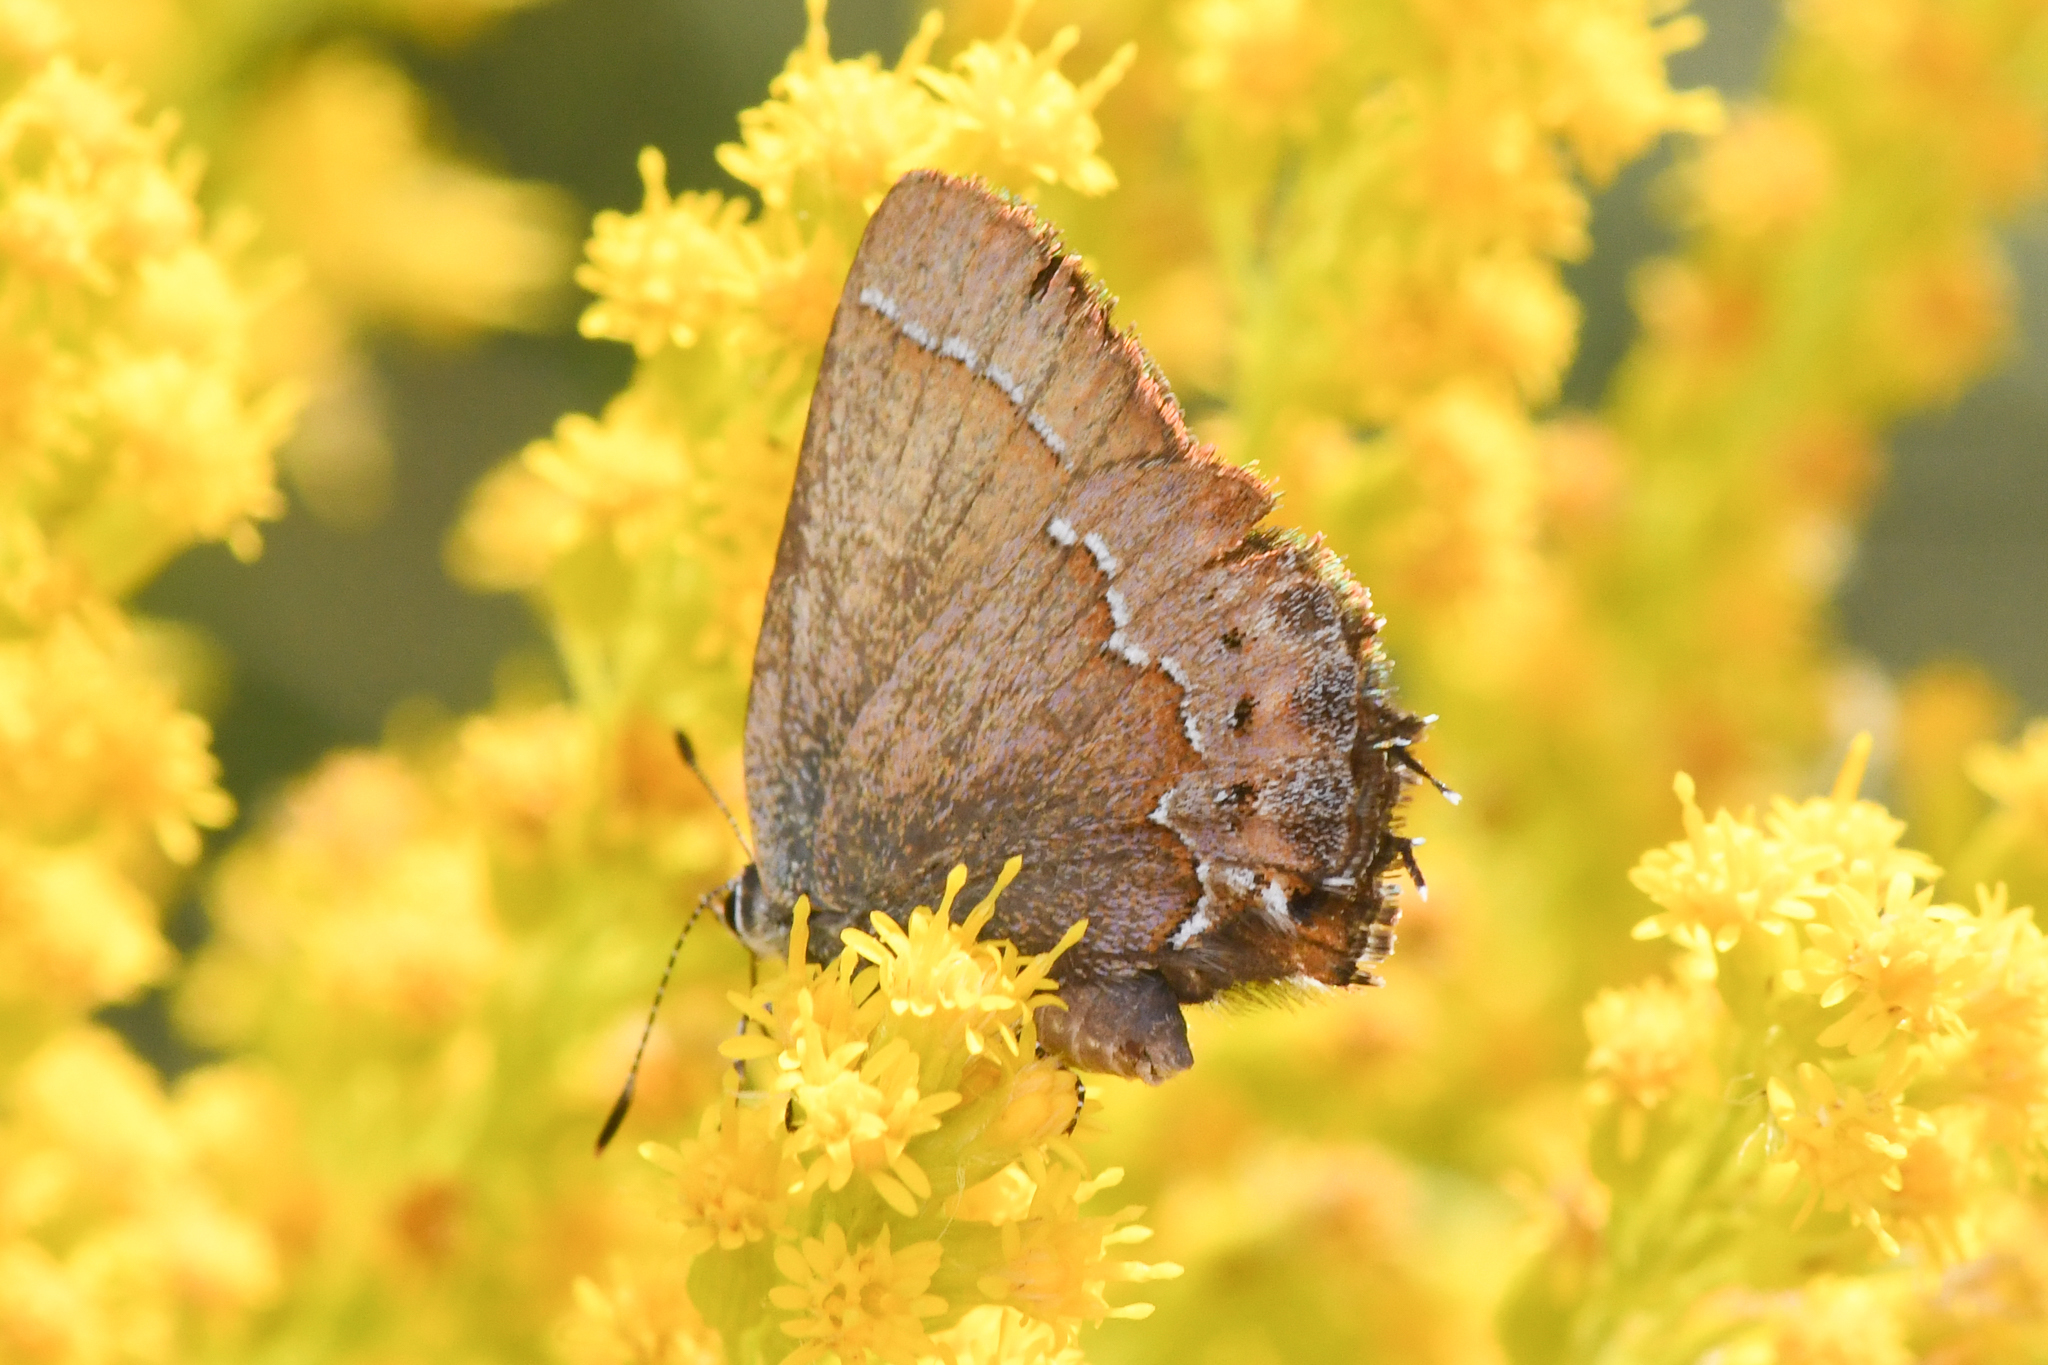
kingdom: Animalia
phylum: Arthropoda
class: Insecta
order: Lepidoptera
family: Lycaenidae
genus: Mitoura
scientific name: Mitoura gryneus
